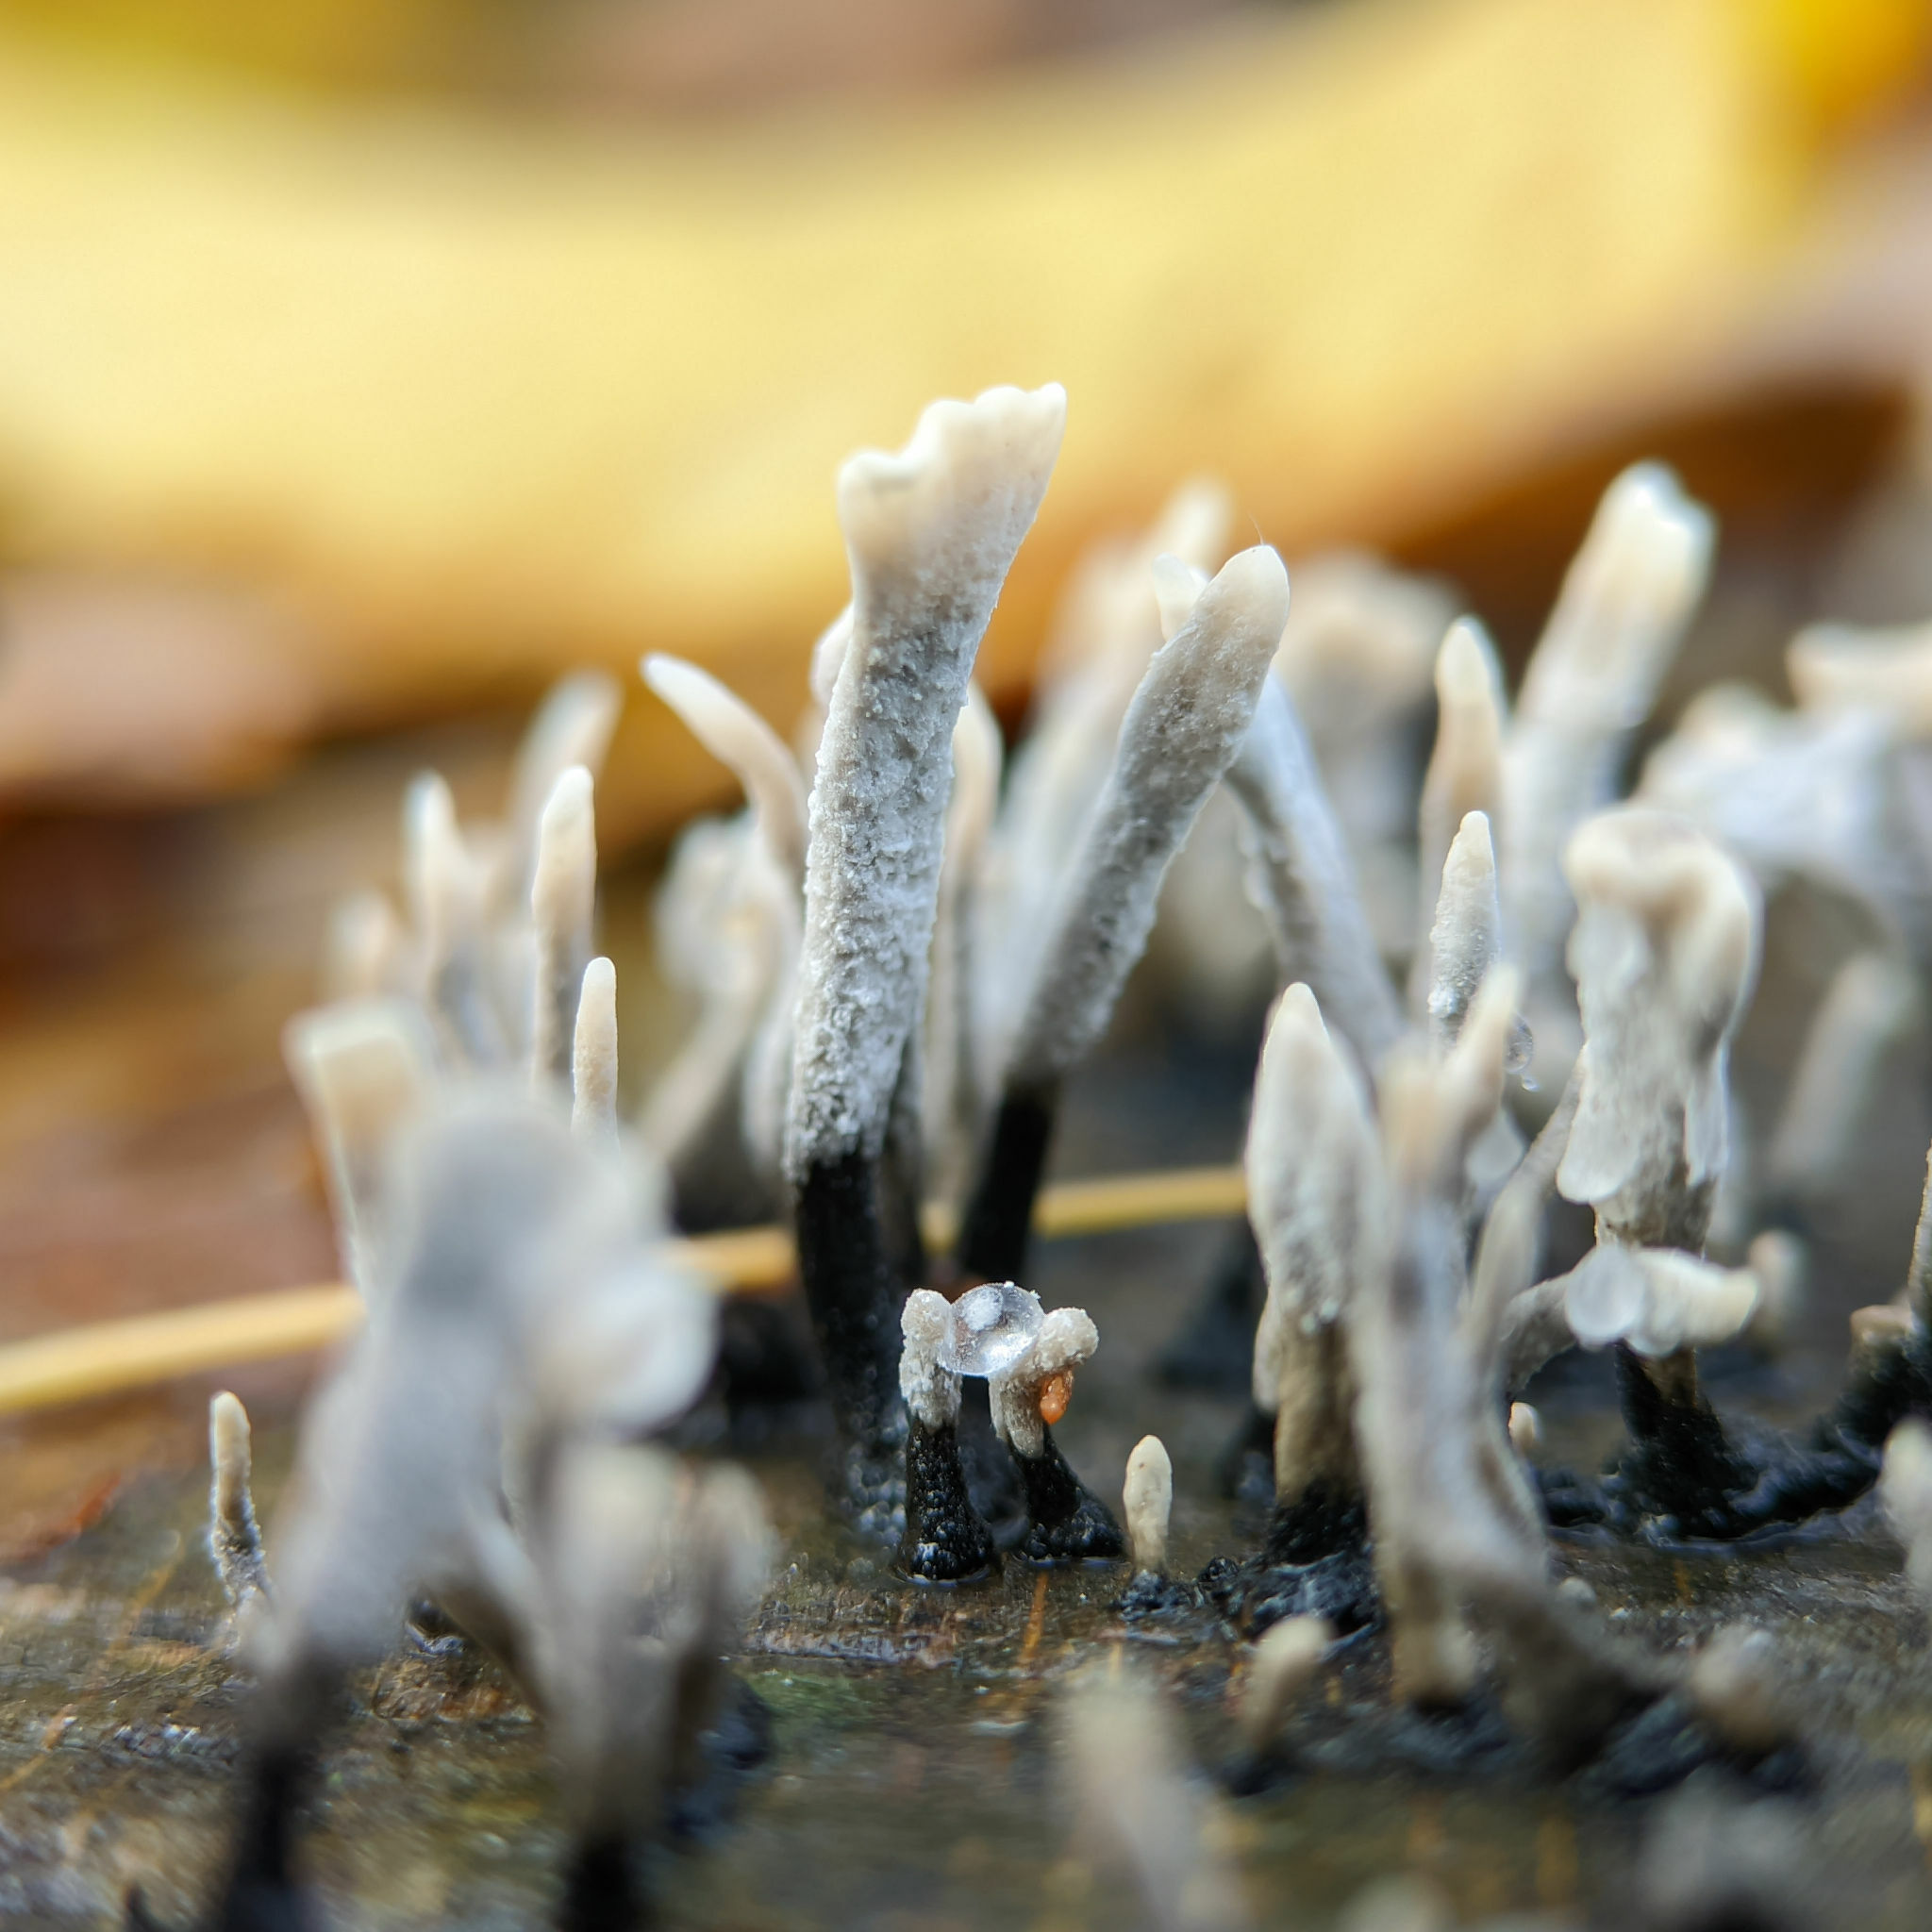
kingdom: Fungi
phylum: Ascomycota
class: Sordariomycetes
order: Xylariales
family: Xylariaceae
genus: Xylaria
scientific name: Xylaria hypoxylon
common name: Candle-snuff fungus
